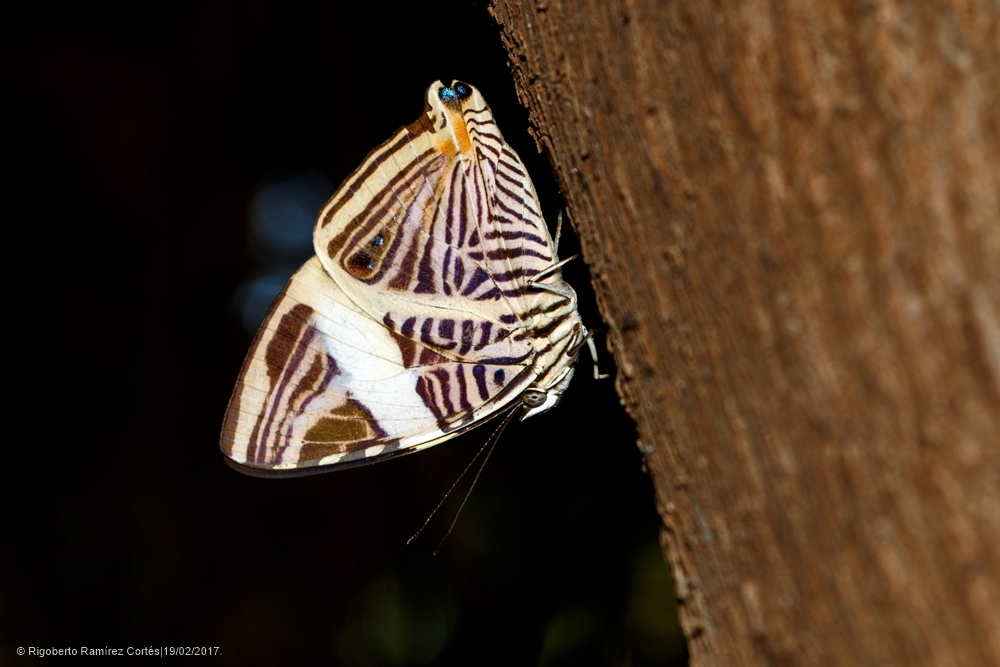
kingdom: Animalia
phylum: Arthropoda
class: Insecta
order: Lepidoptera
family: Nymphalidae
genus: Colobura
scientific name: Colobura dirce
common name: Dirce beauty
